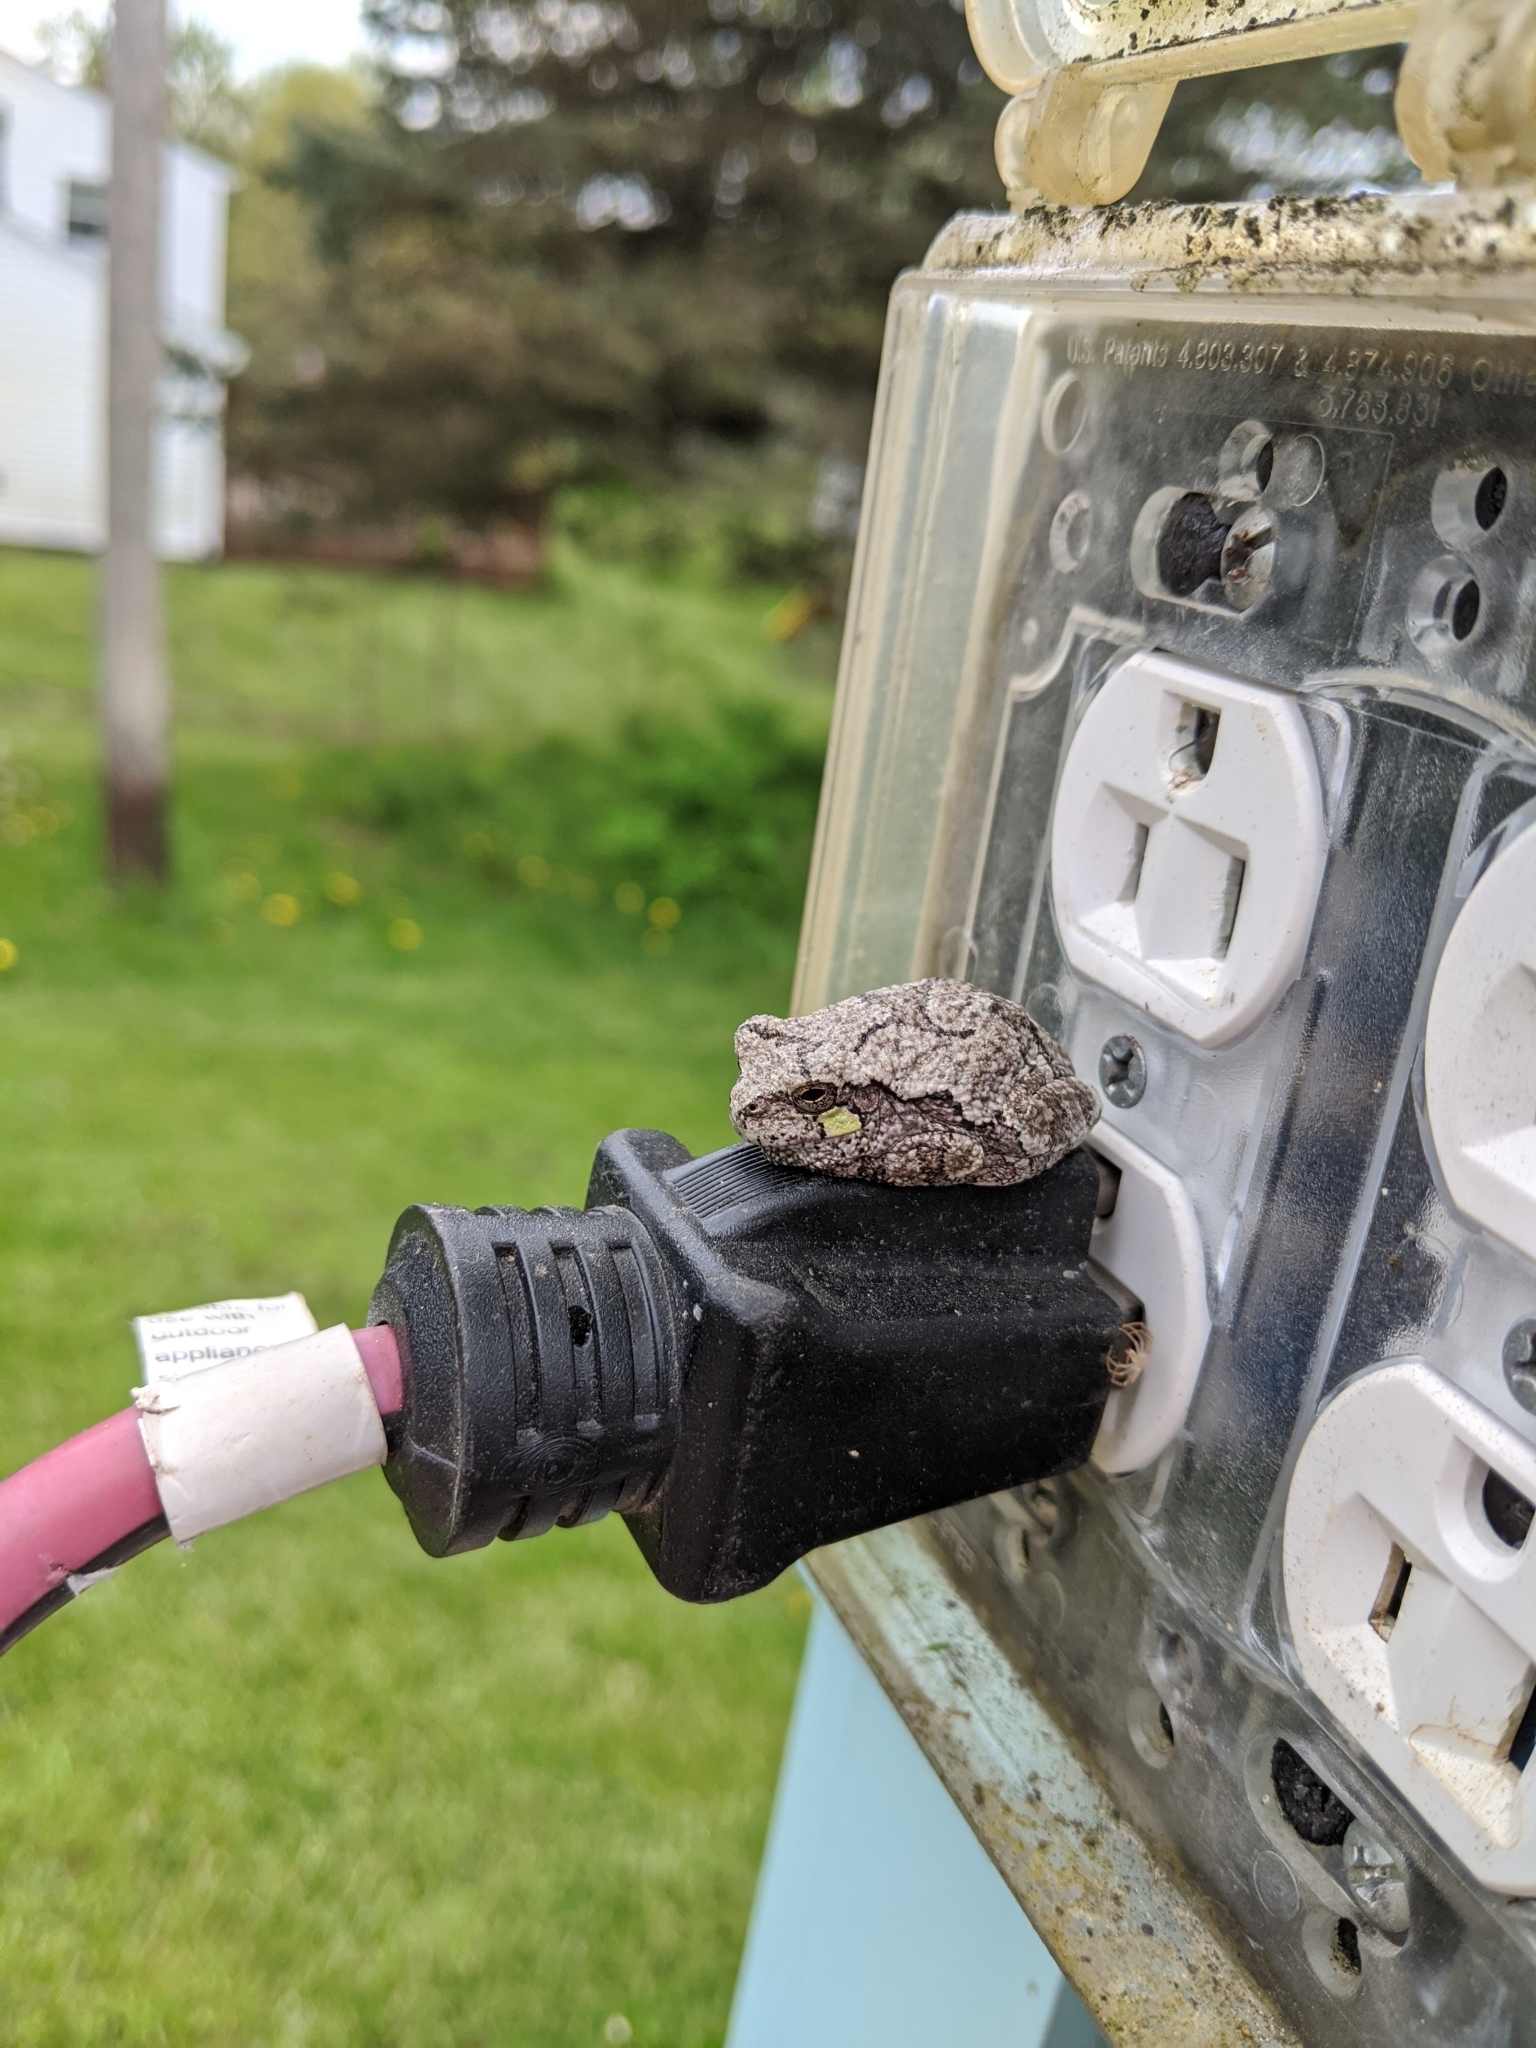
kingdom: Animalia
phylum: Chordata
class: Amphibia
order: Anura
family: Hylidae
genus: Hyla
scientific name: Hyla
